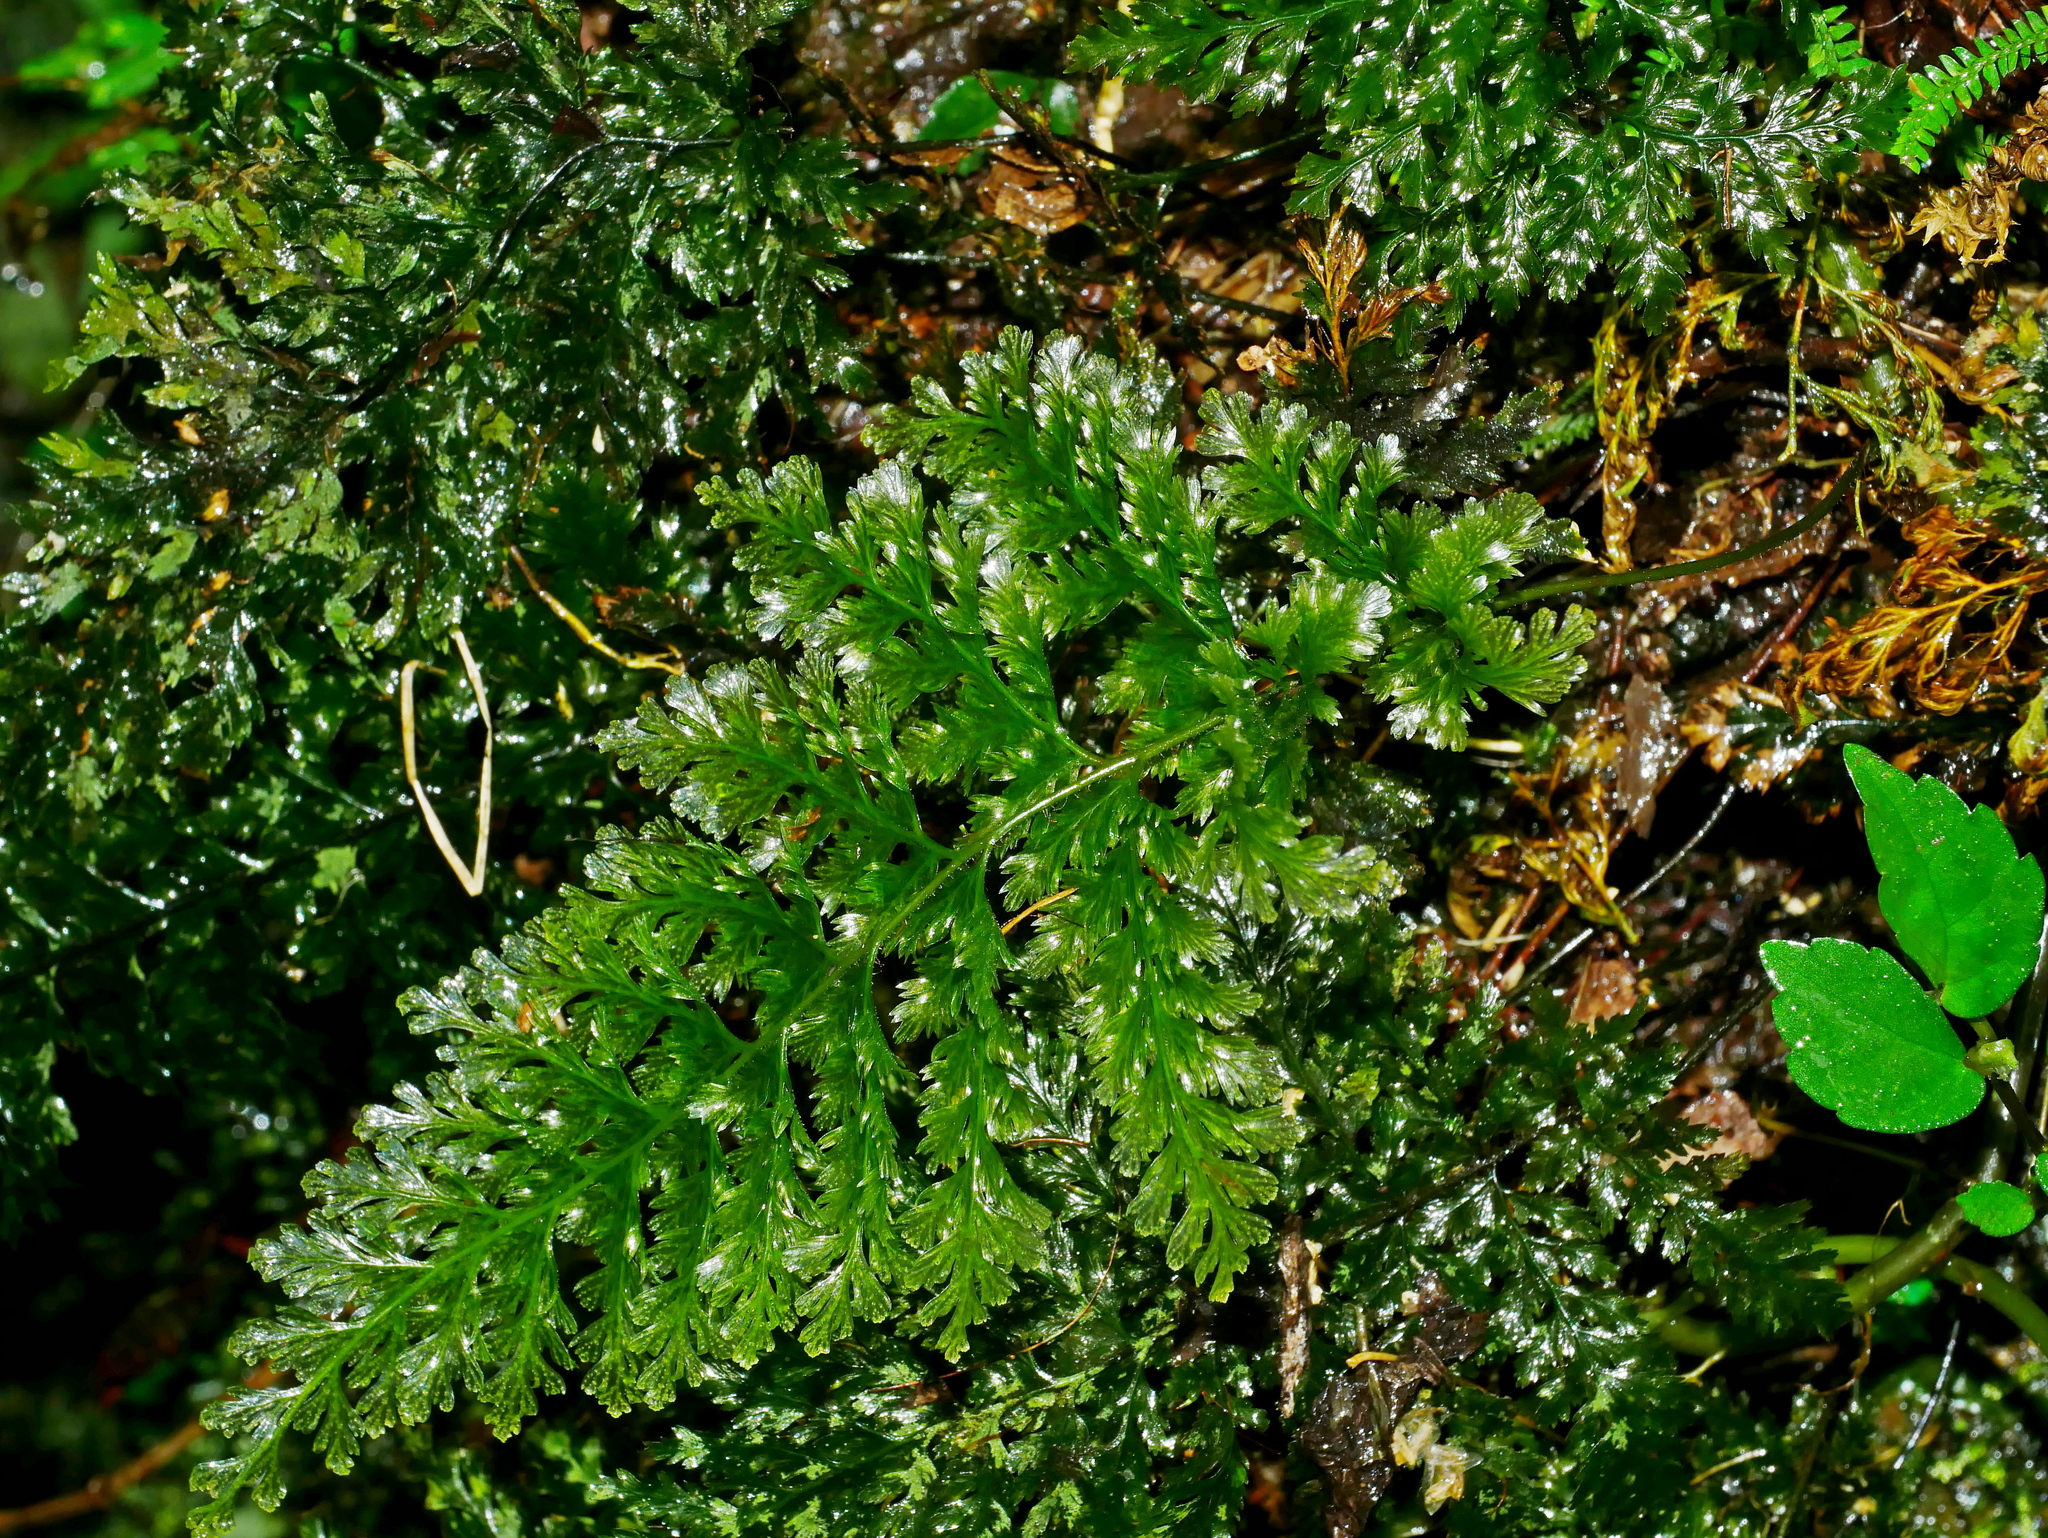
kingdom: Plantae
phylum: Tracheophyta
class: Polypodiopsida
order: Hymenophyllales
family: Hymenophyllaceae
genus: Abrodictyum
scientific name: Abrodictyum obscurum
